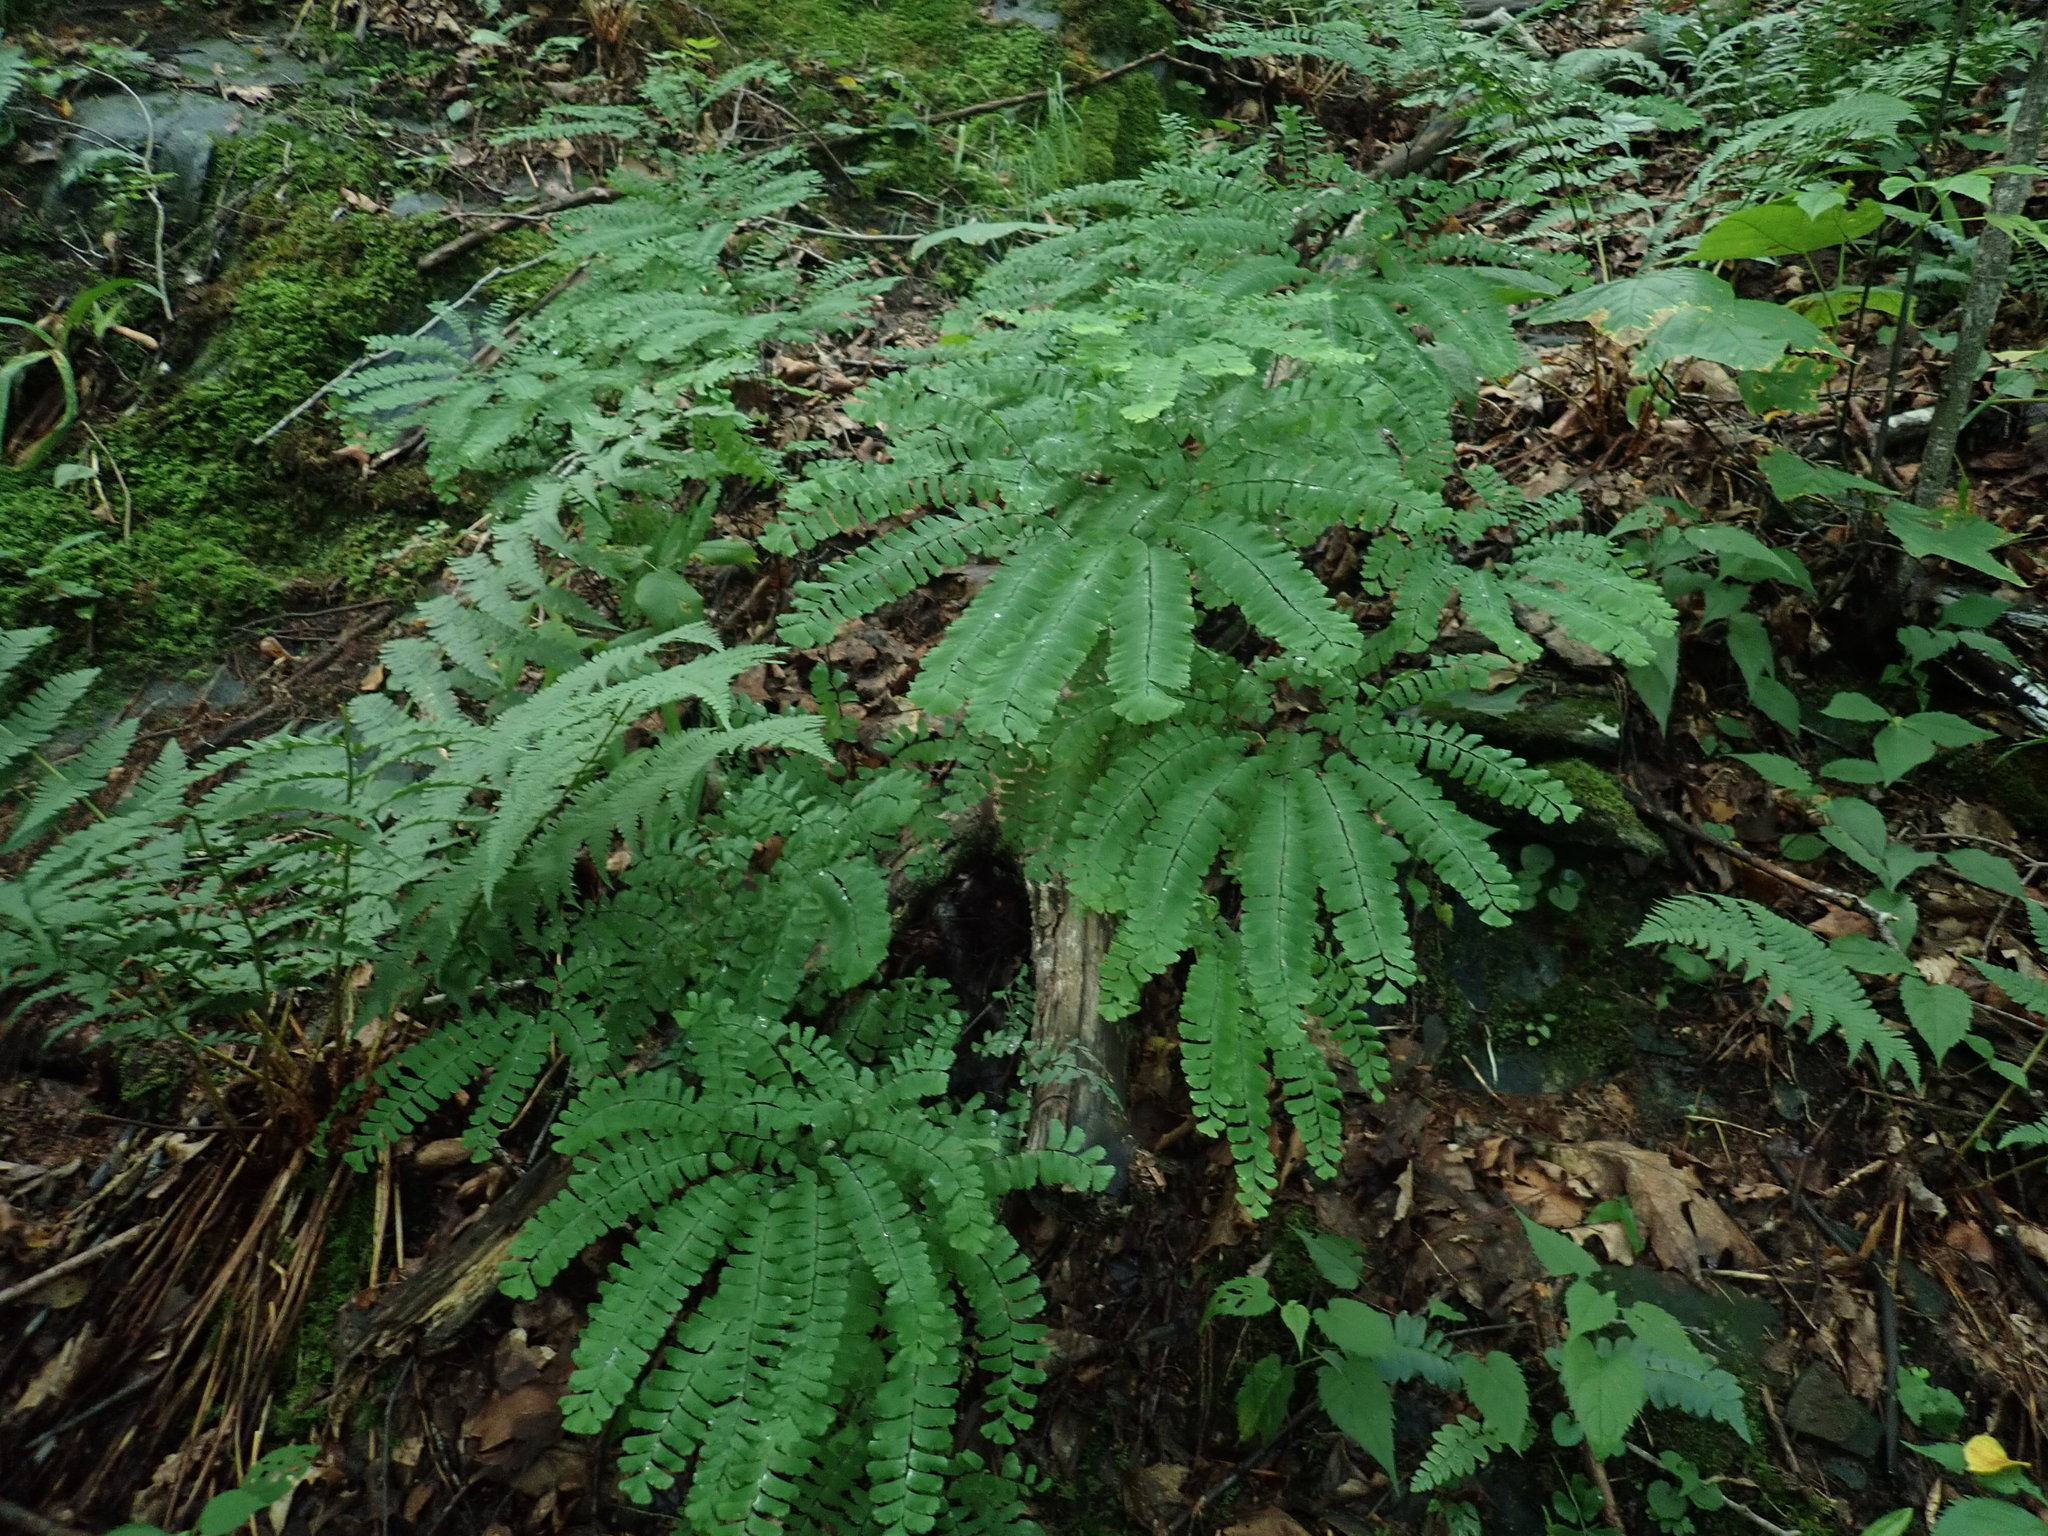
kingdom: Plantae
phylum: Tracheophyta
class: Polypodiopsida
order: Polypodiales
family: Pteridaceae
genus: Adiantum
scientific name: Adiantum pedatum
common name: Five-finger fern
